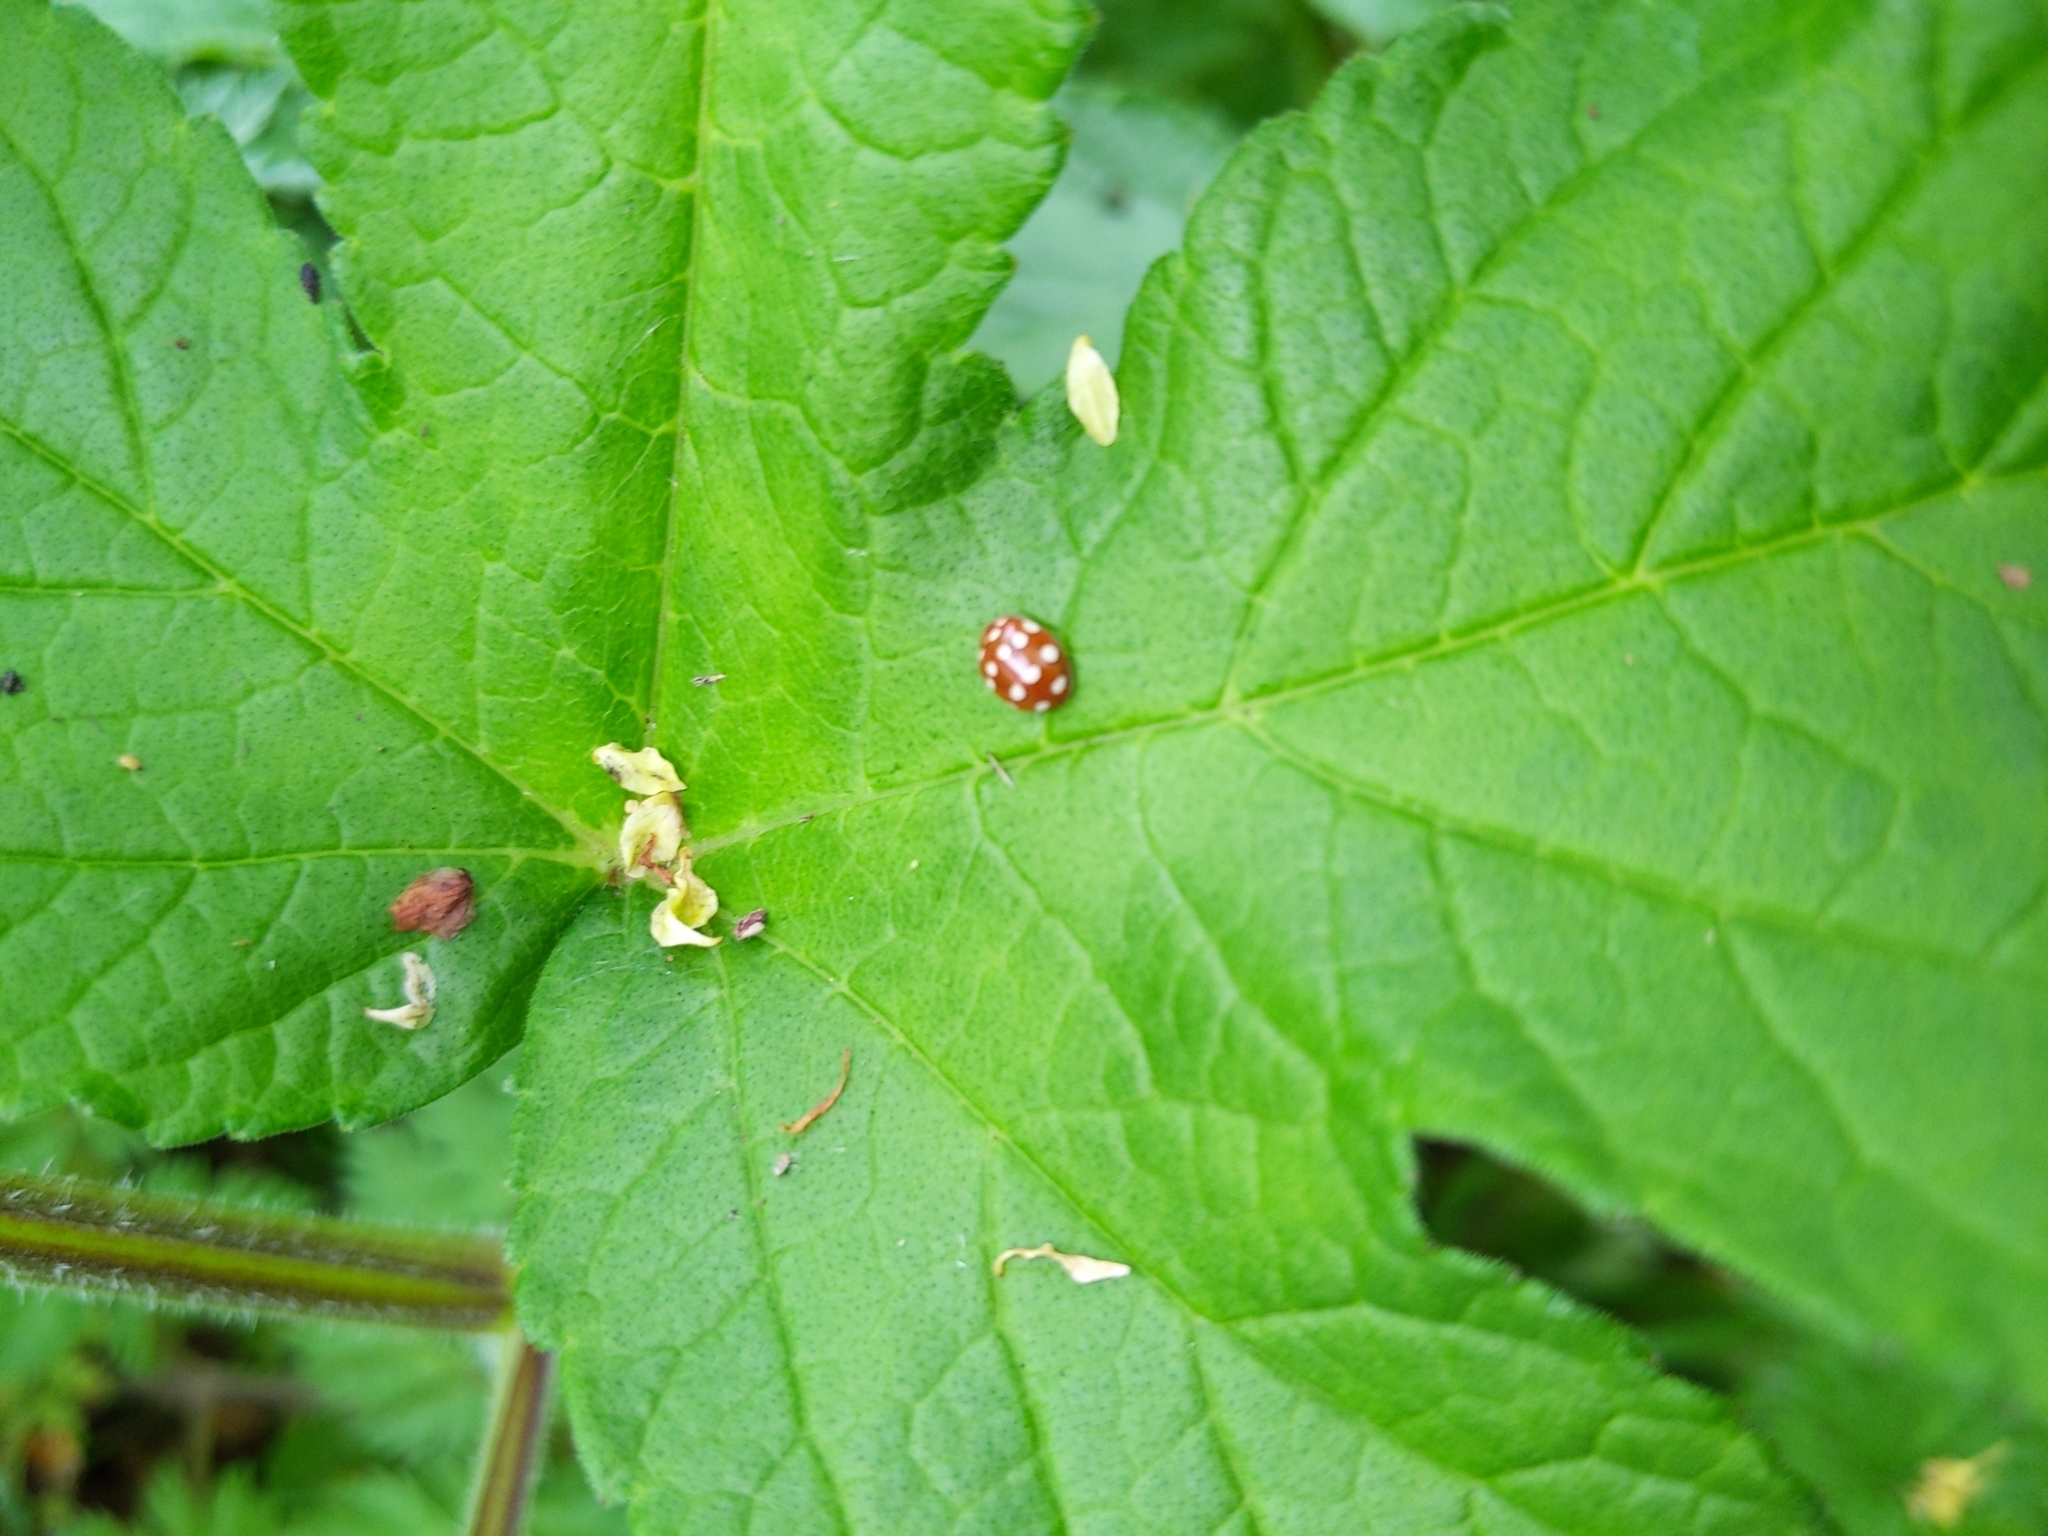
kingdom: Animalia
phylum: Arthropoda
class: Insecta
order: Coleoptera
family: Coccinellidae
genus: Calvia
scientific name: Calvia quatuordecimguttata
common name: Cream-spot ladybird
